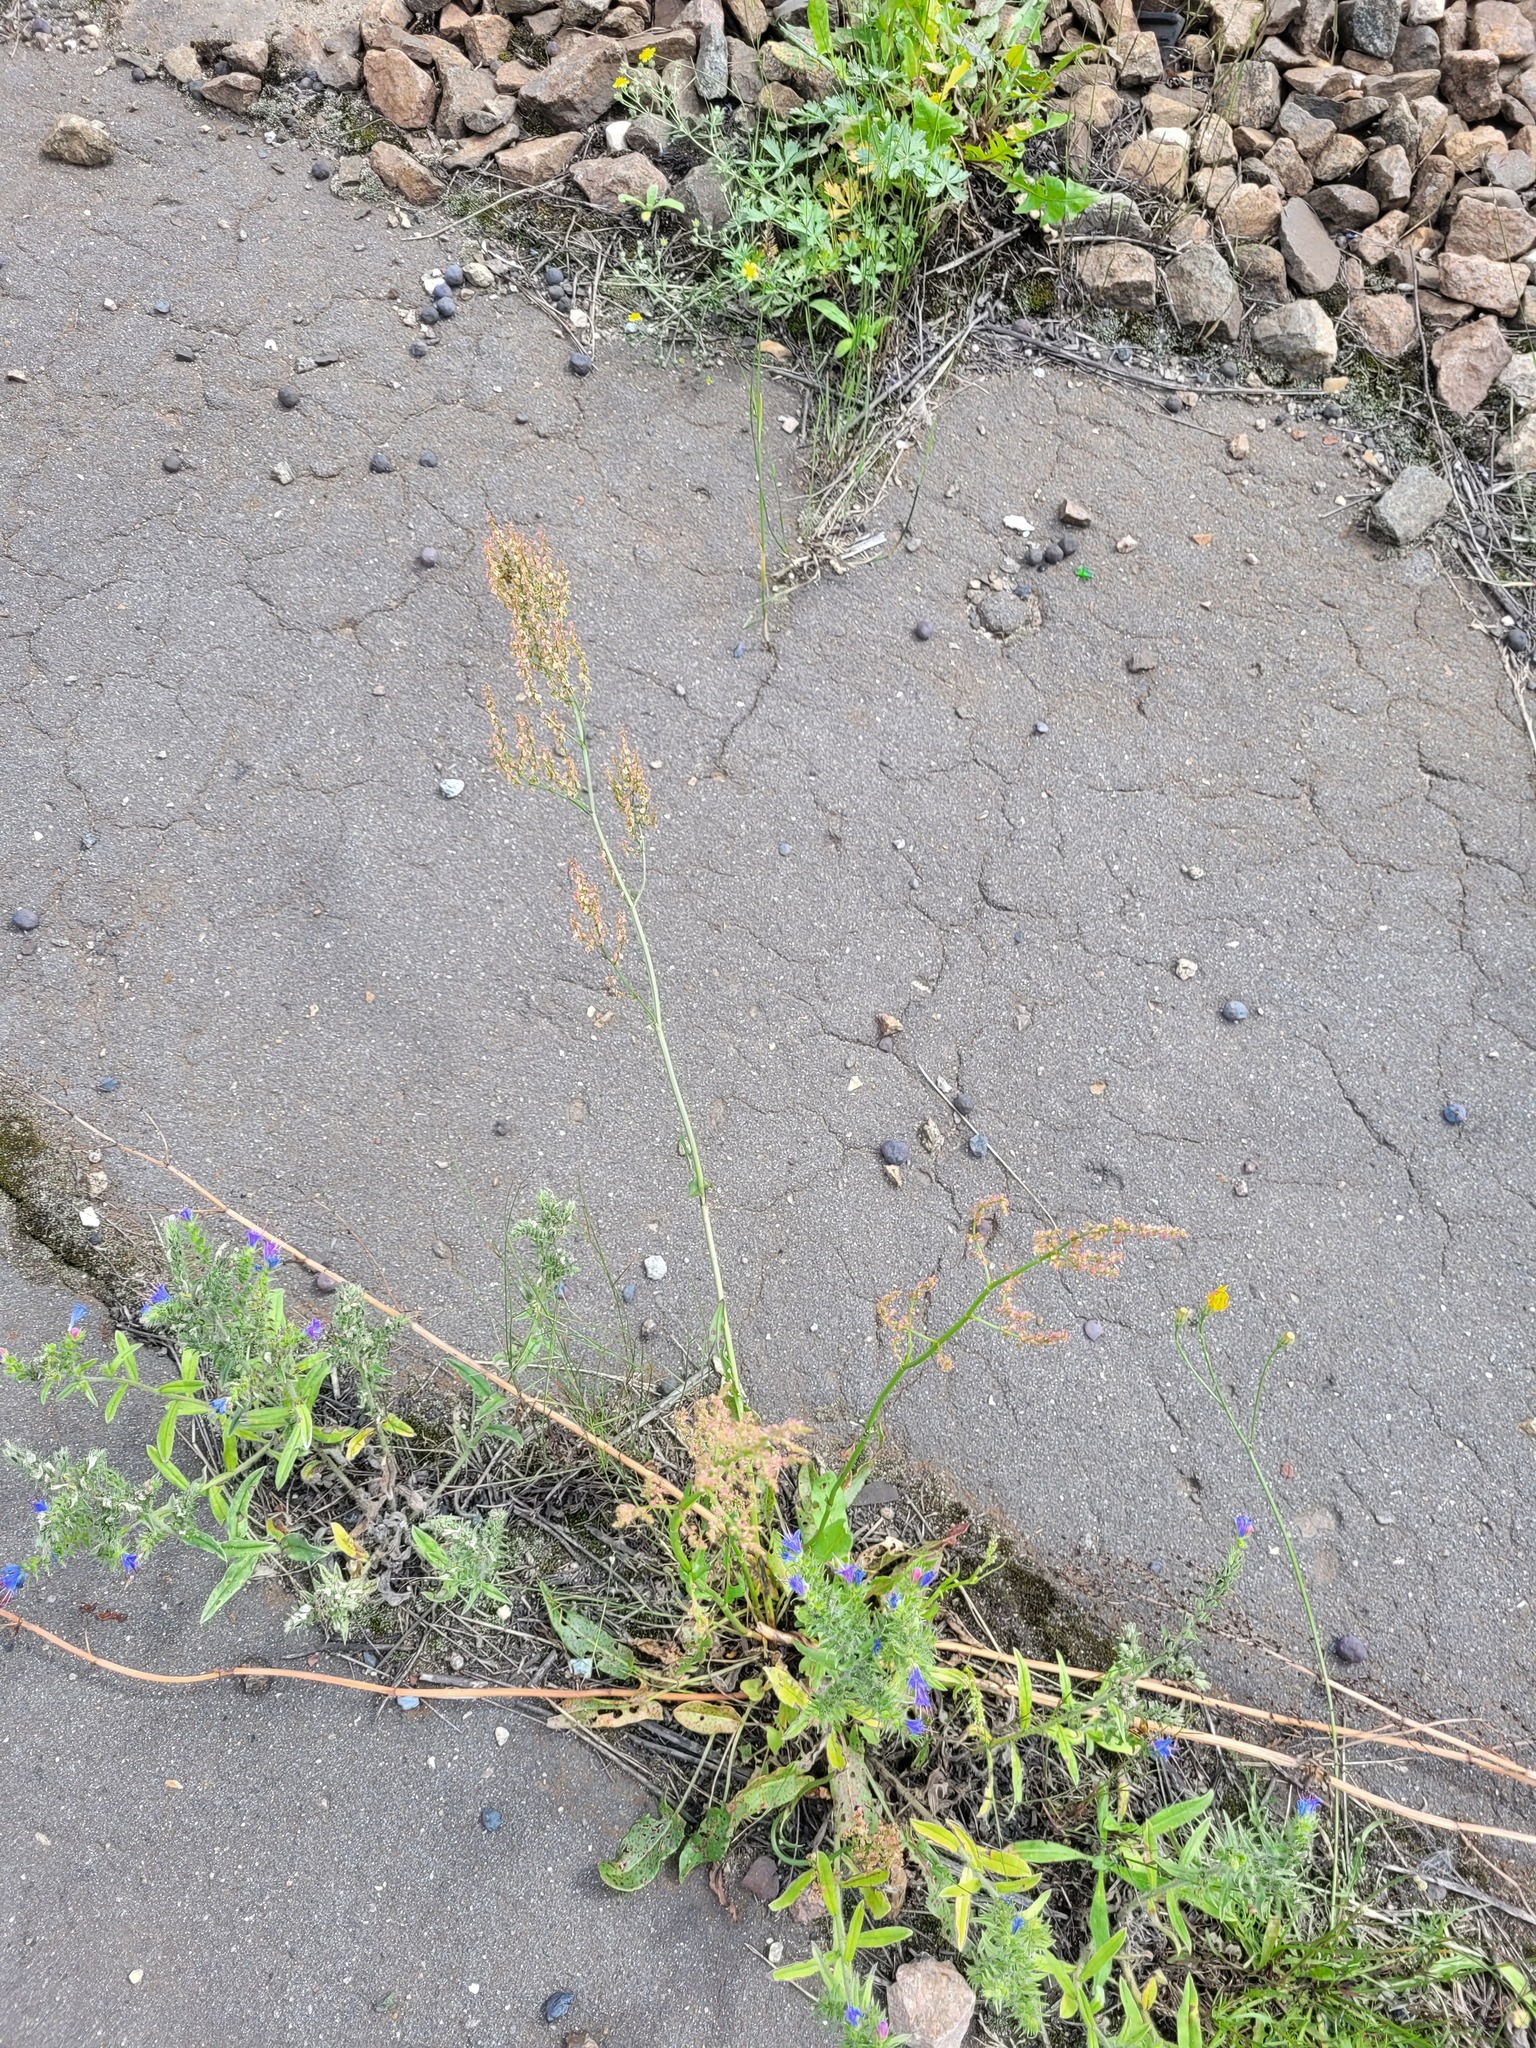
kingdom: Plantae
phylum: Tracheophyta
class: Magnoliopsida
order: Caryophyllales
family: Polygonaceae
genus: Rumex
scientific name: Rumex thyrsiflorus
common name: Garden sorrel
